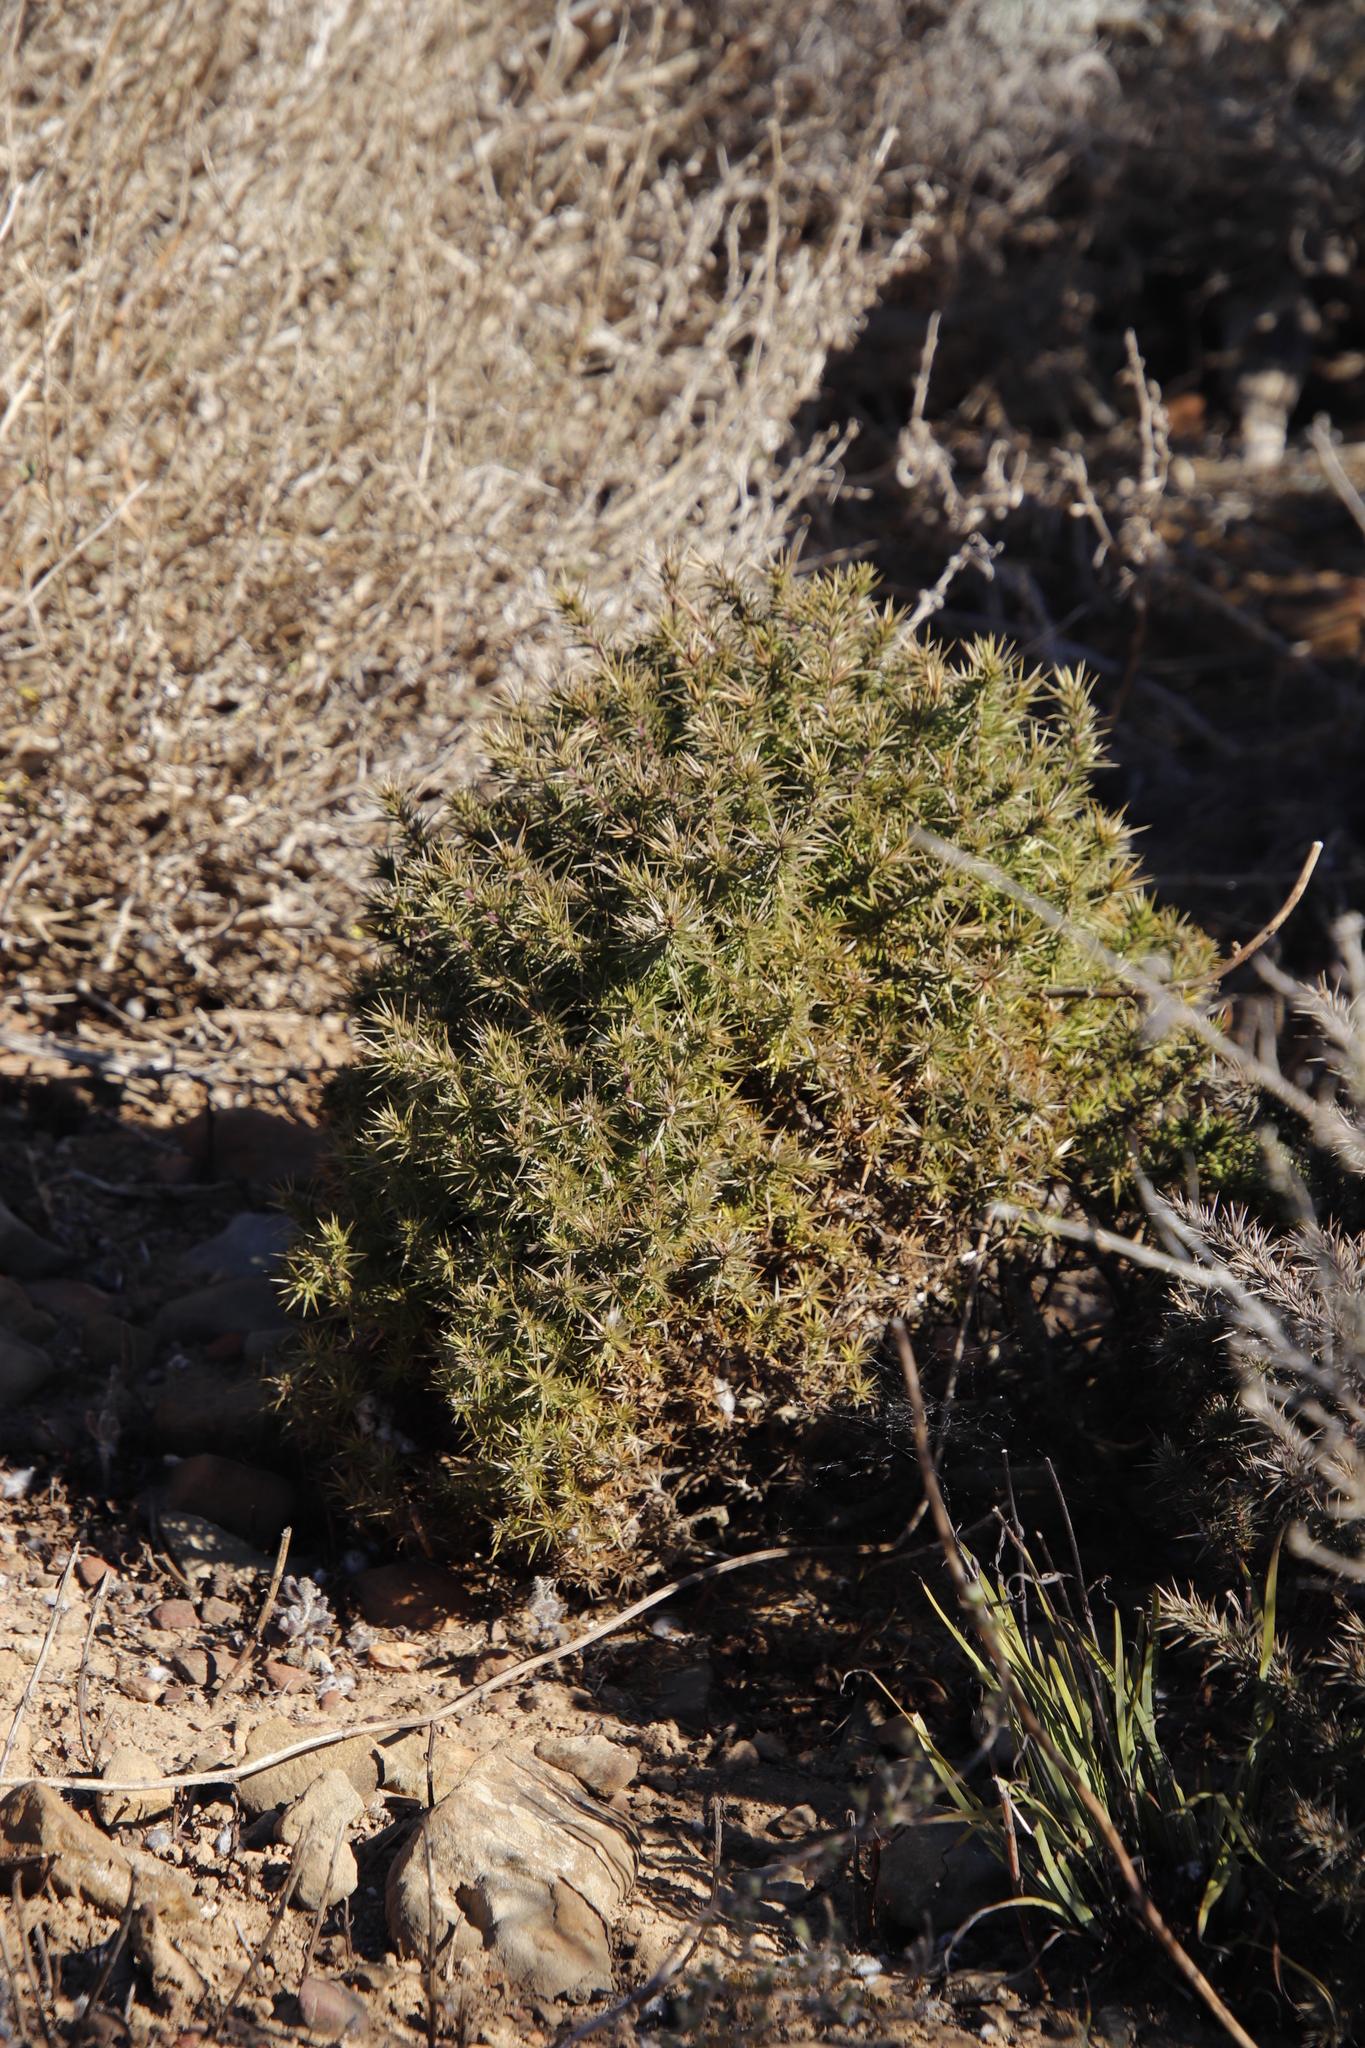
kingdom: Plantae
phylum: Tracheophyta
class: Magnoliopsida
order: Fabales
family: Polygalaceae
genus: Muraltia
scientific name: Muraltia ononidifolia
